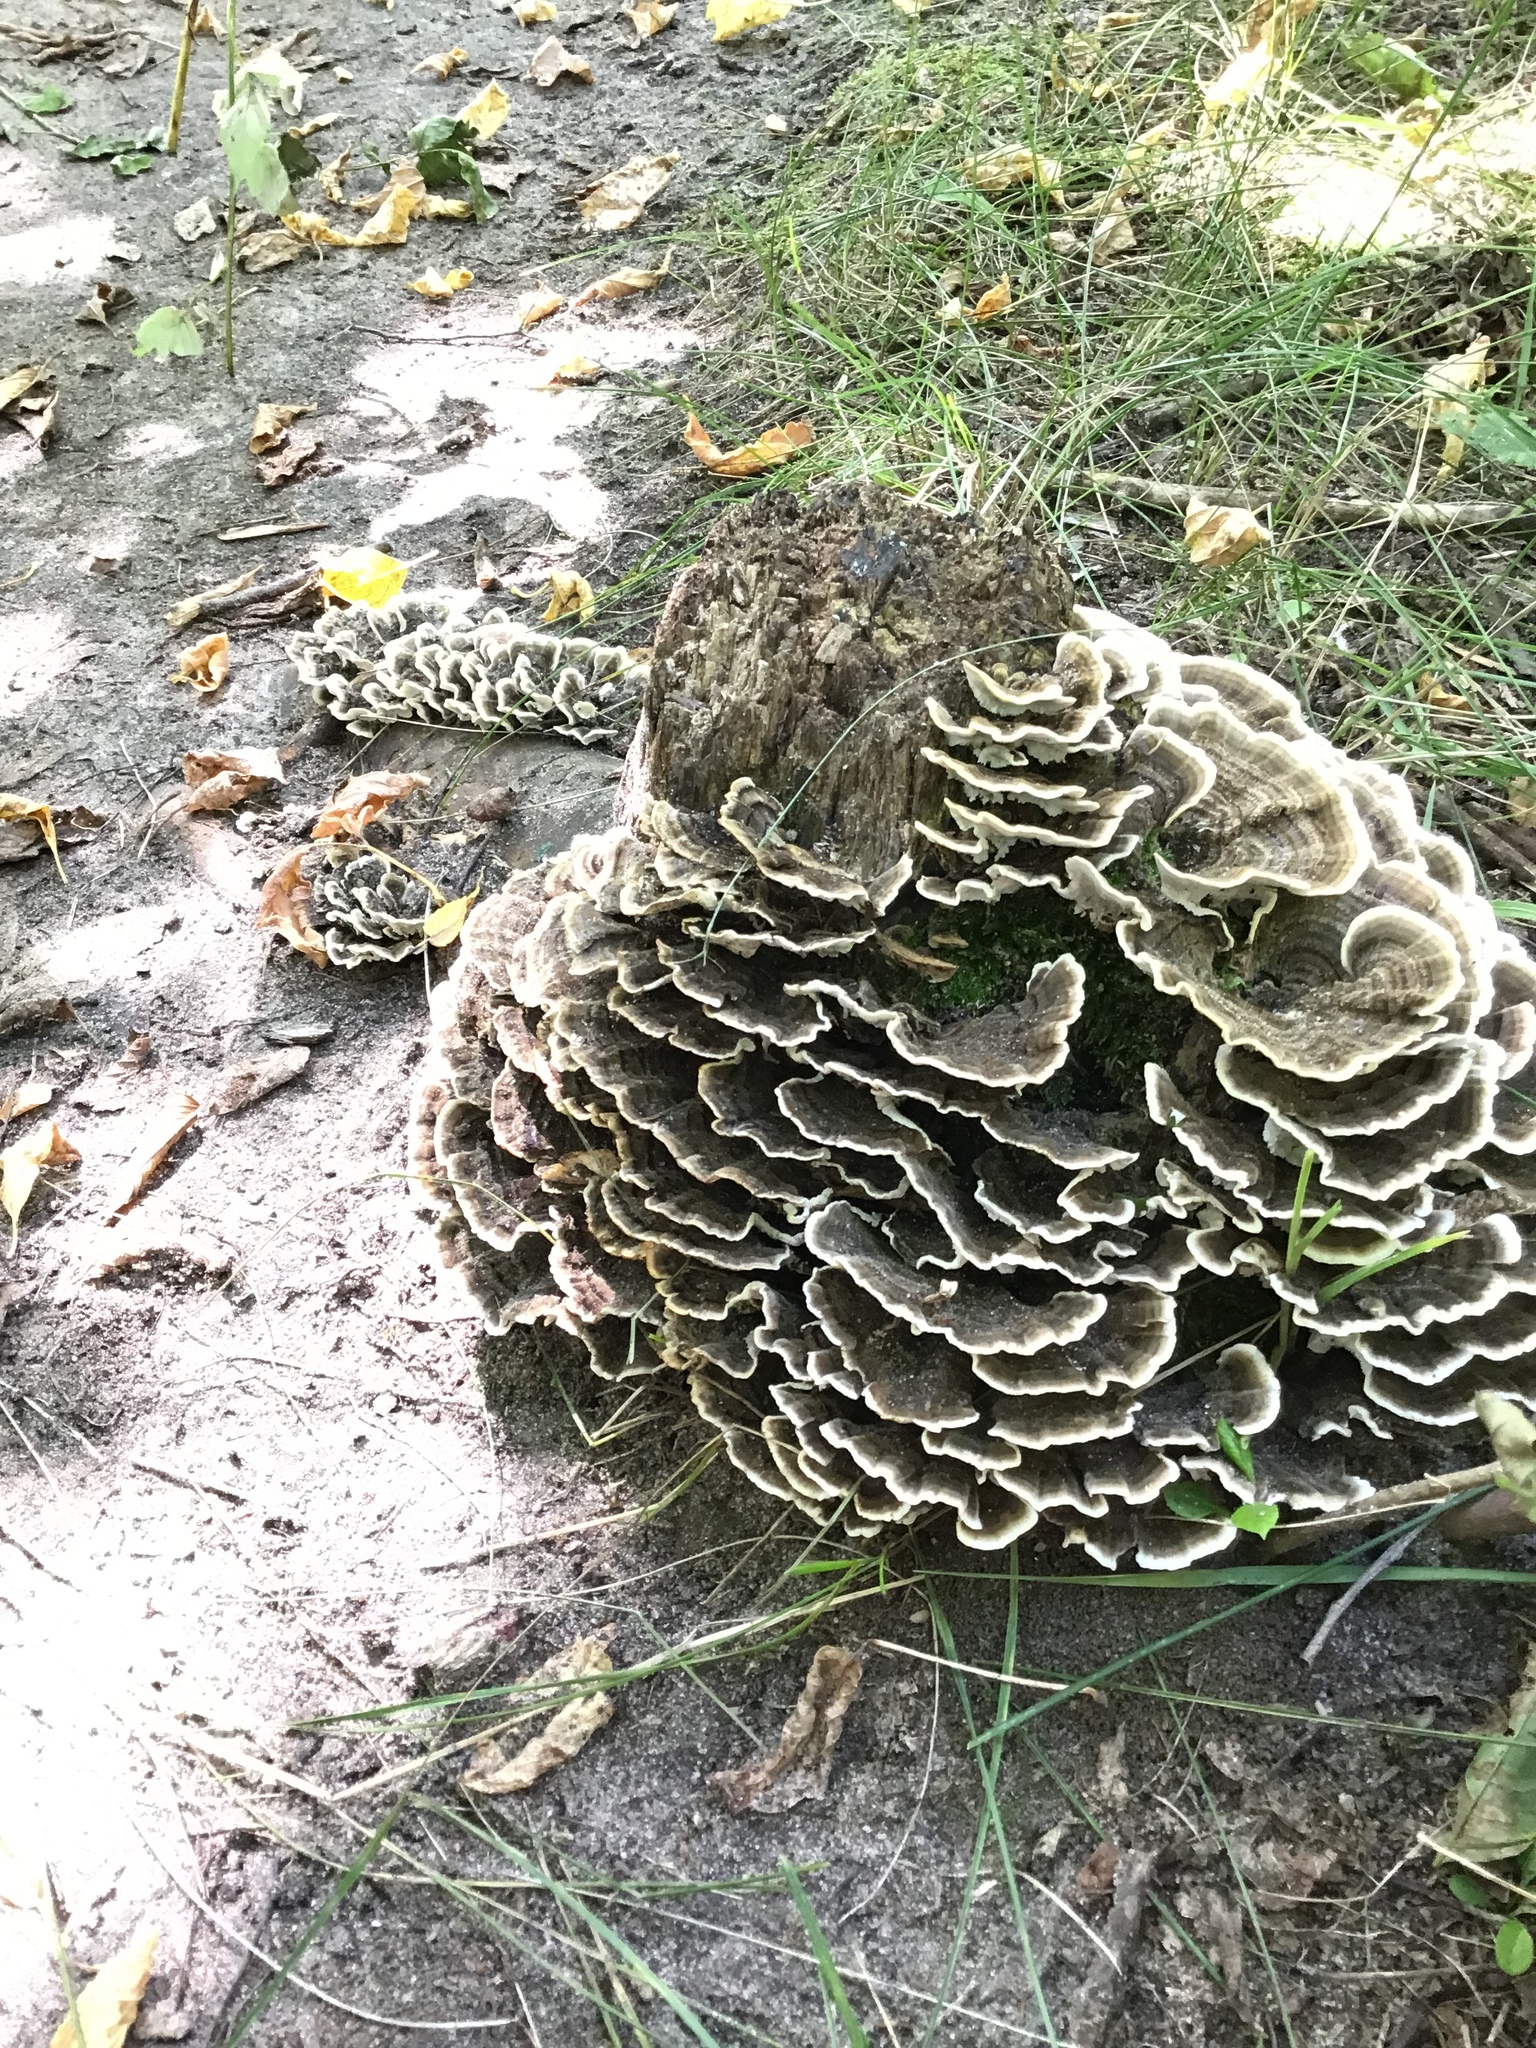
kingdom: Fungi
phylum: Basidiomycota
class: Agaricomycetes
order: Polyporales
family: Polyporaceae
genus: Trametes
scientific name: Trametes versicolor
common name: Turkeytail
